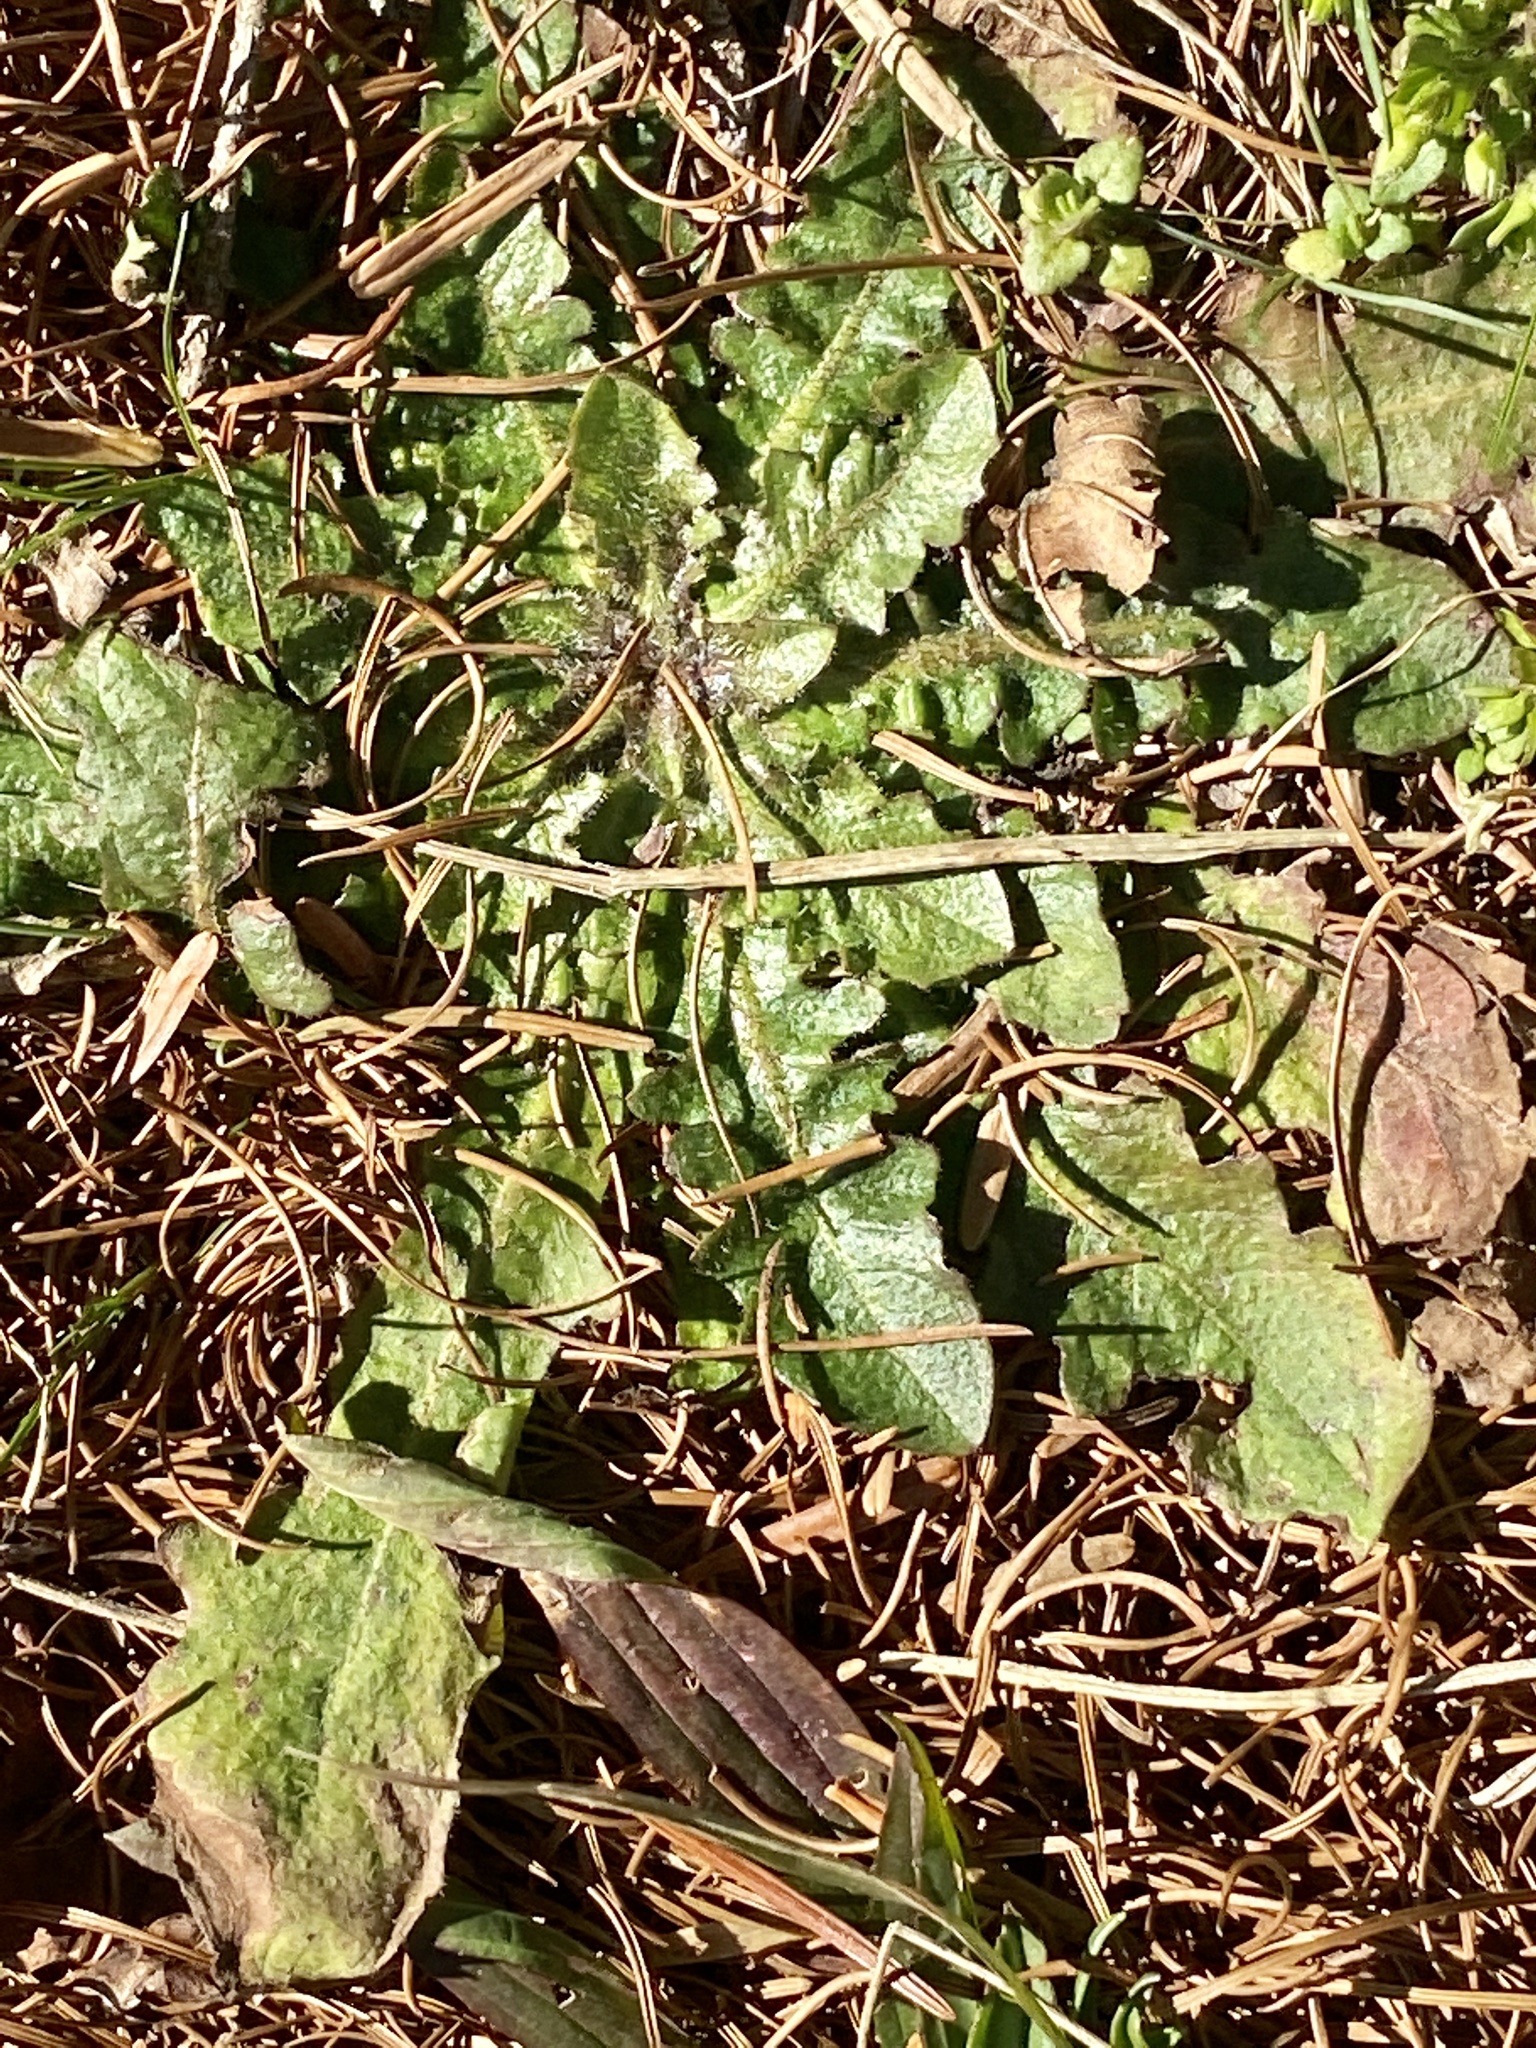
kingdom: Plantae
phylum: Tracheophyta
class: Magnoliopsida
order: Asterales
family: Asteraceae
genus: Hypochaeris
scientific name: Hypochaeris radicata
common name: Flatweed
